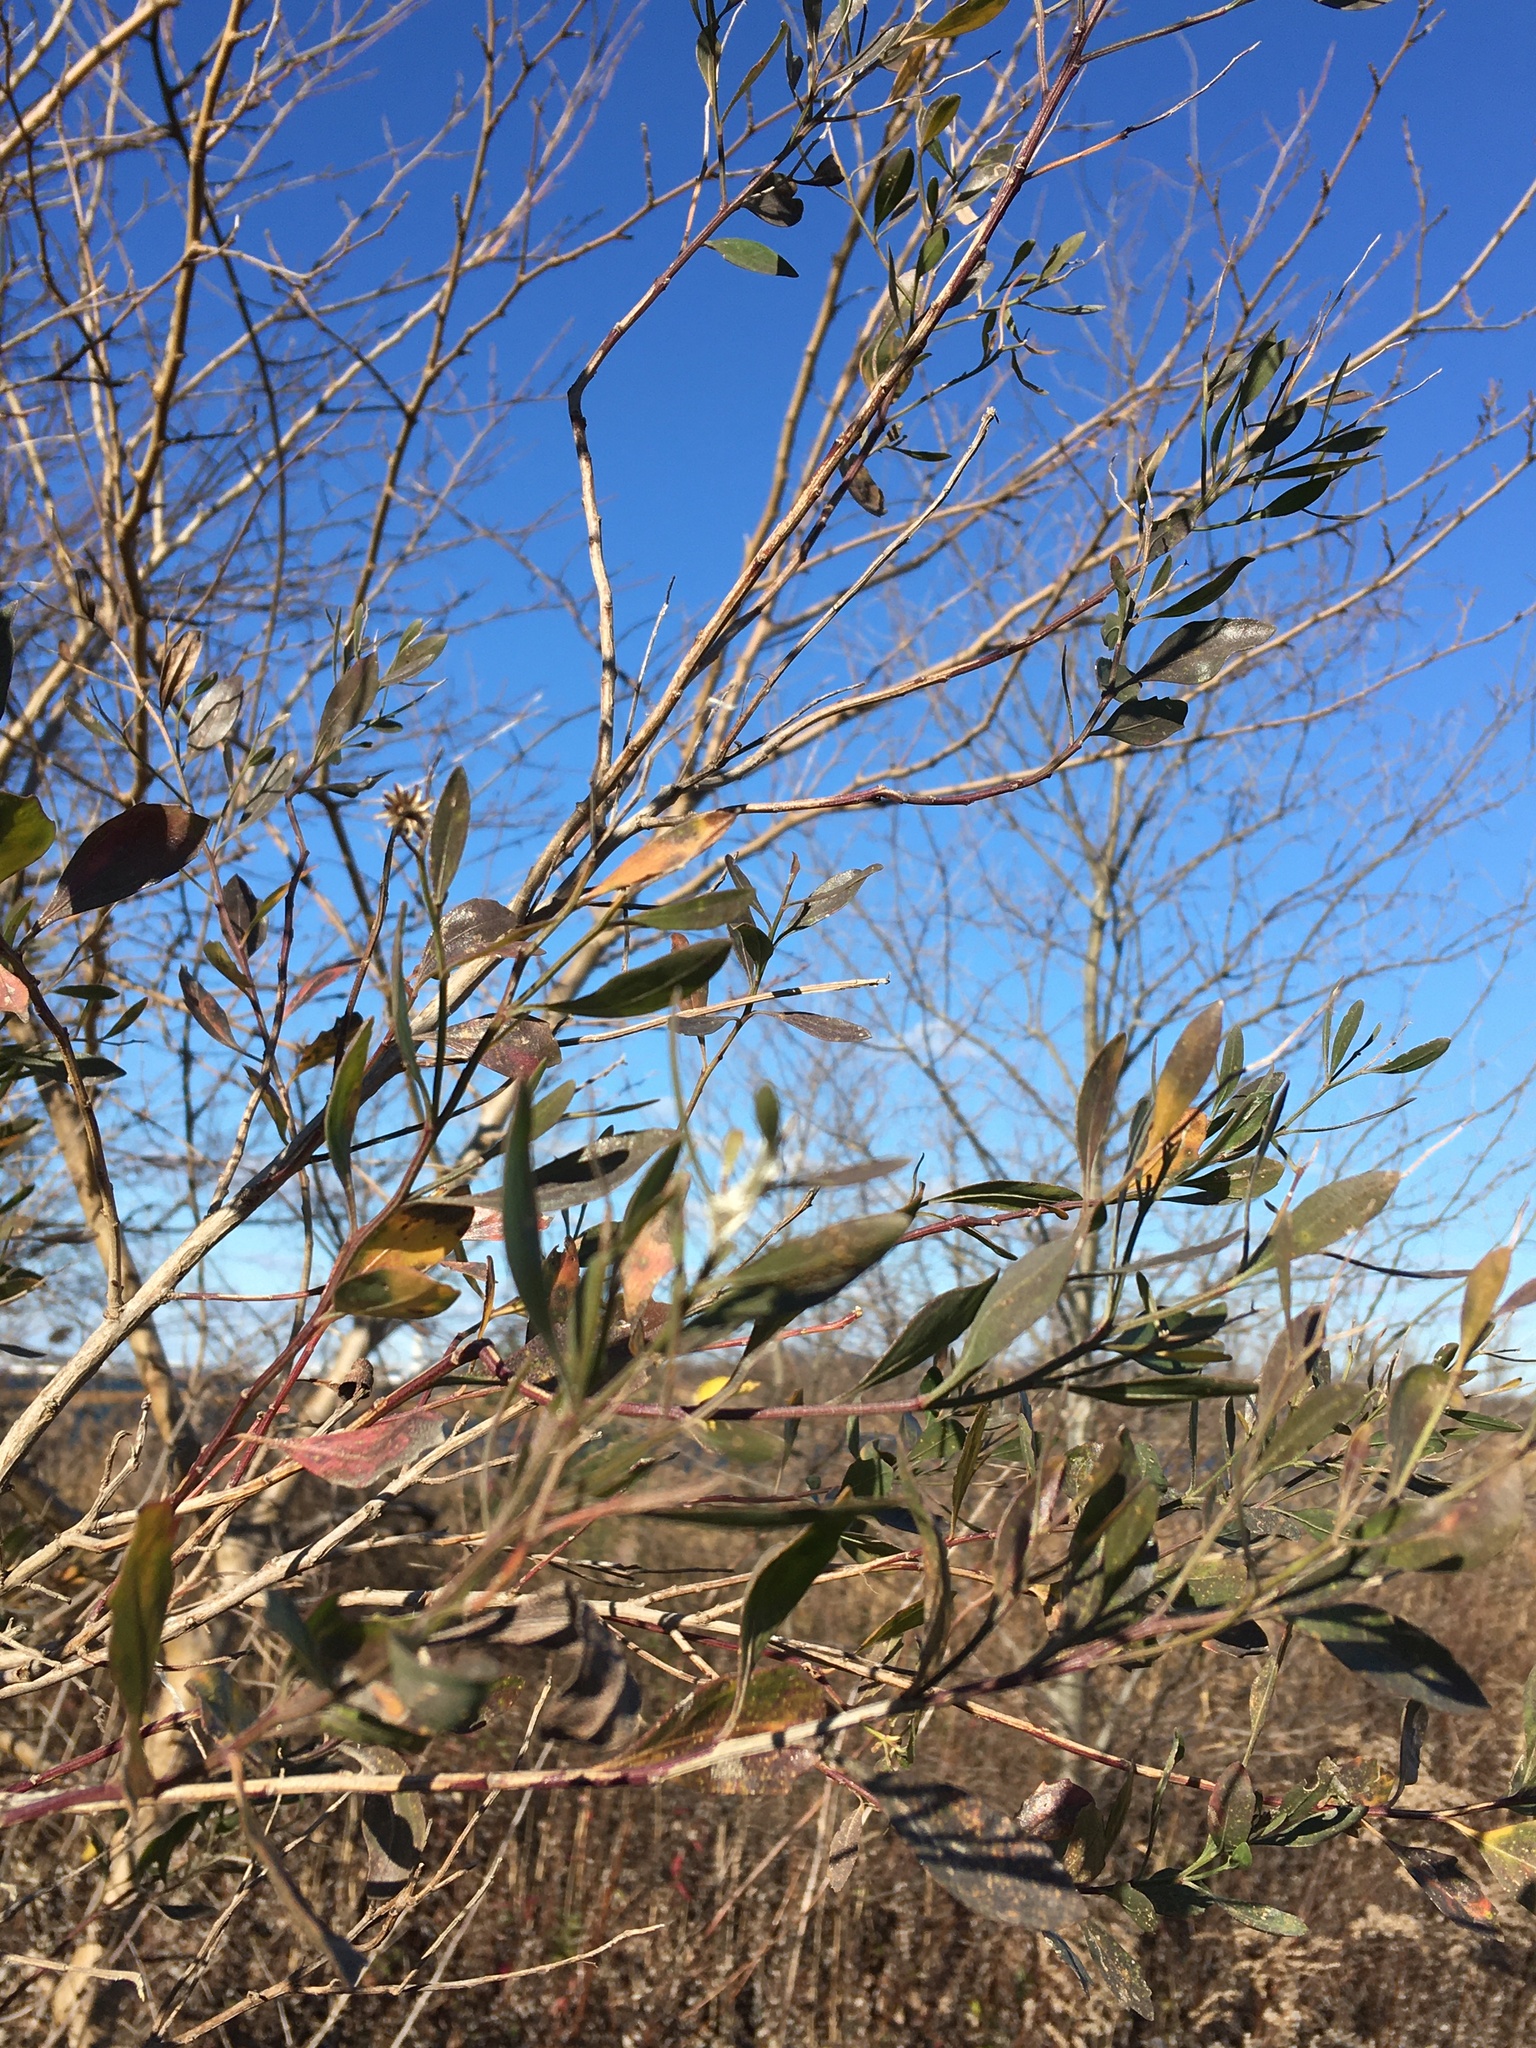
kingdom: Plantae
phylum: Tracheophyta
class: Magnoliopsida
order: Asterales
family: Asteraceae
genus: Baccharis
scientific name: Baccharis halimifolia
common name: Eastern baccharis
